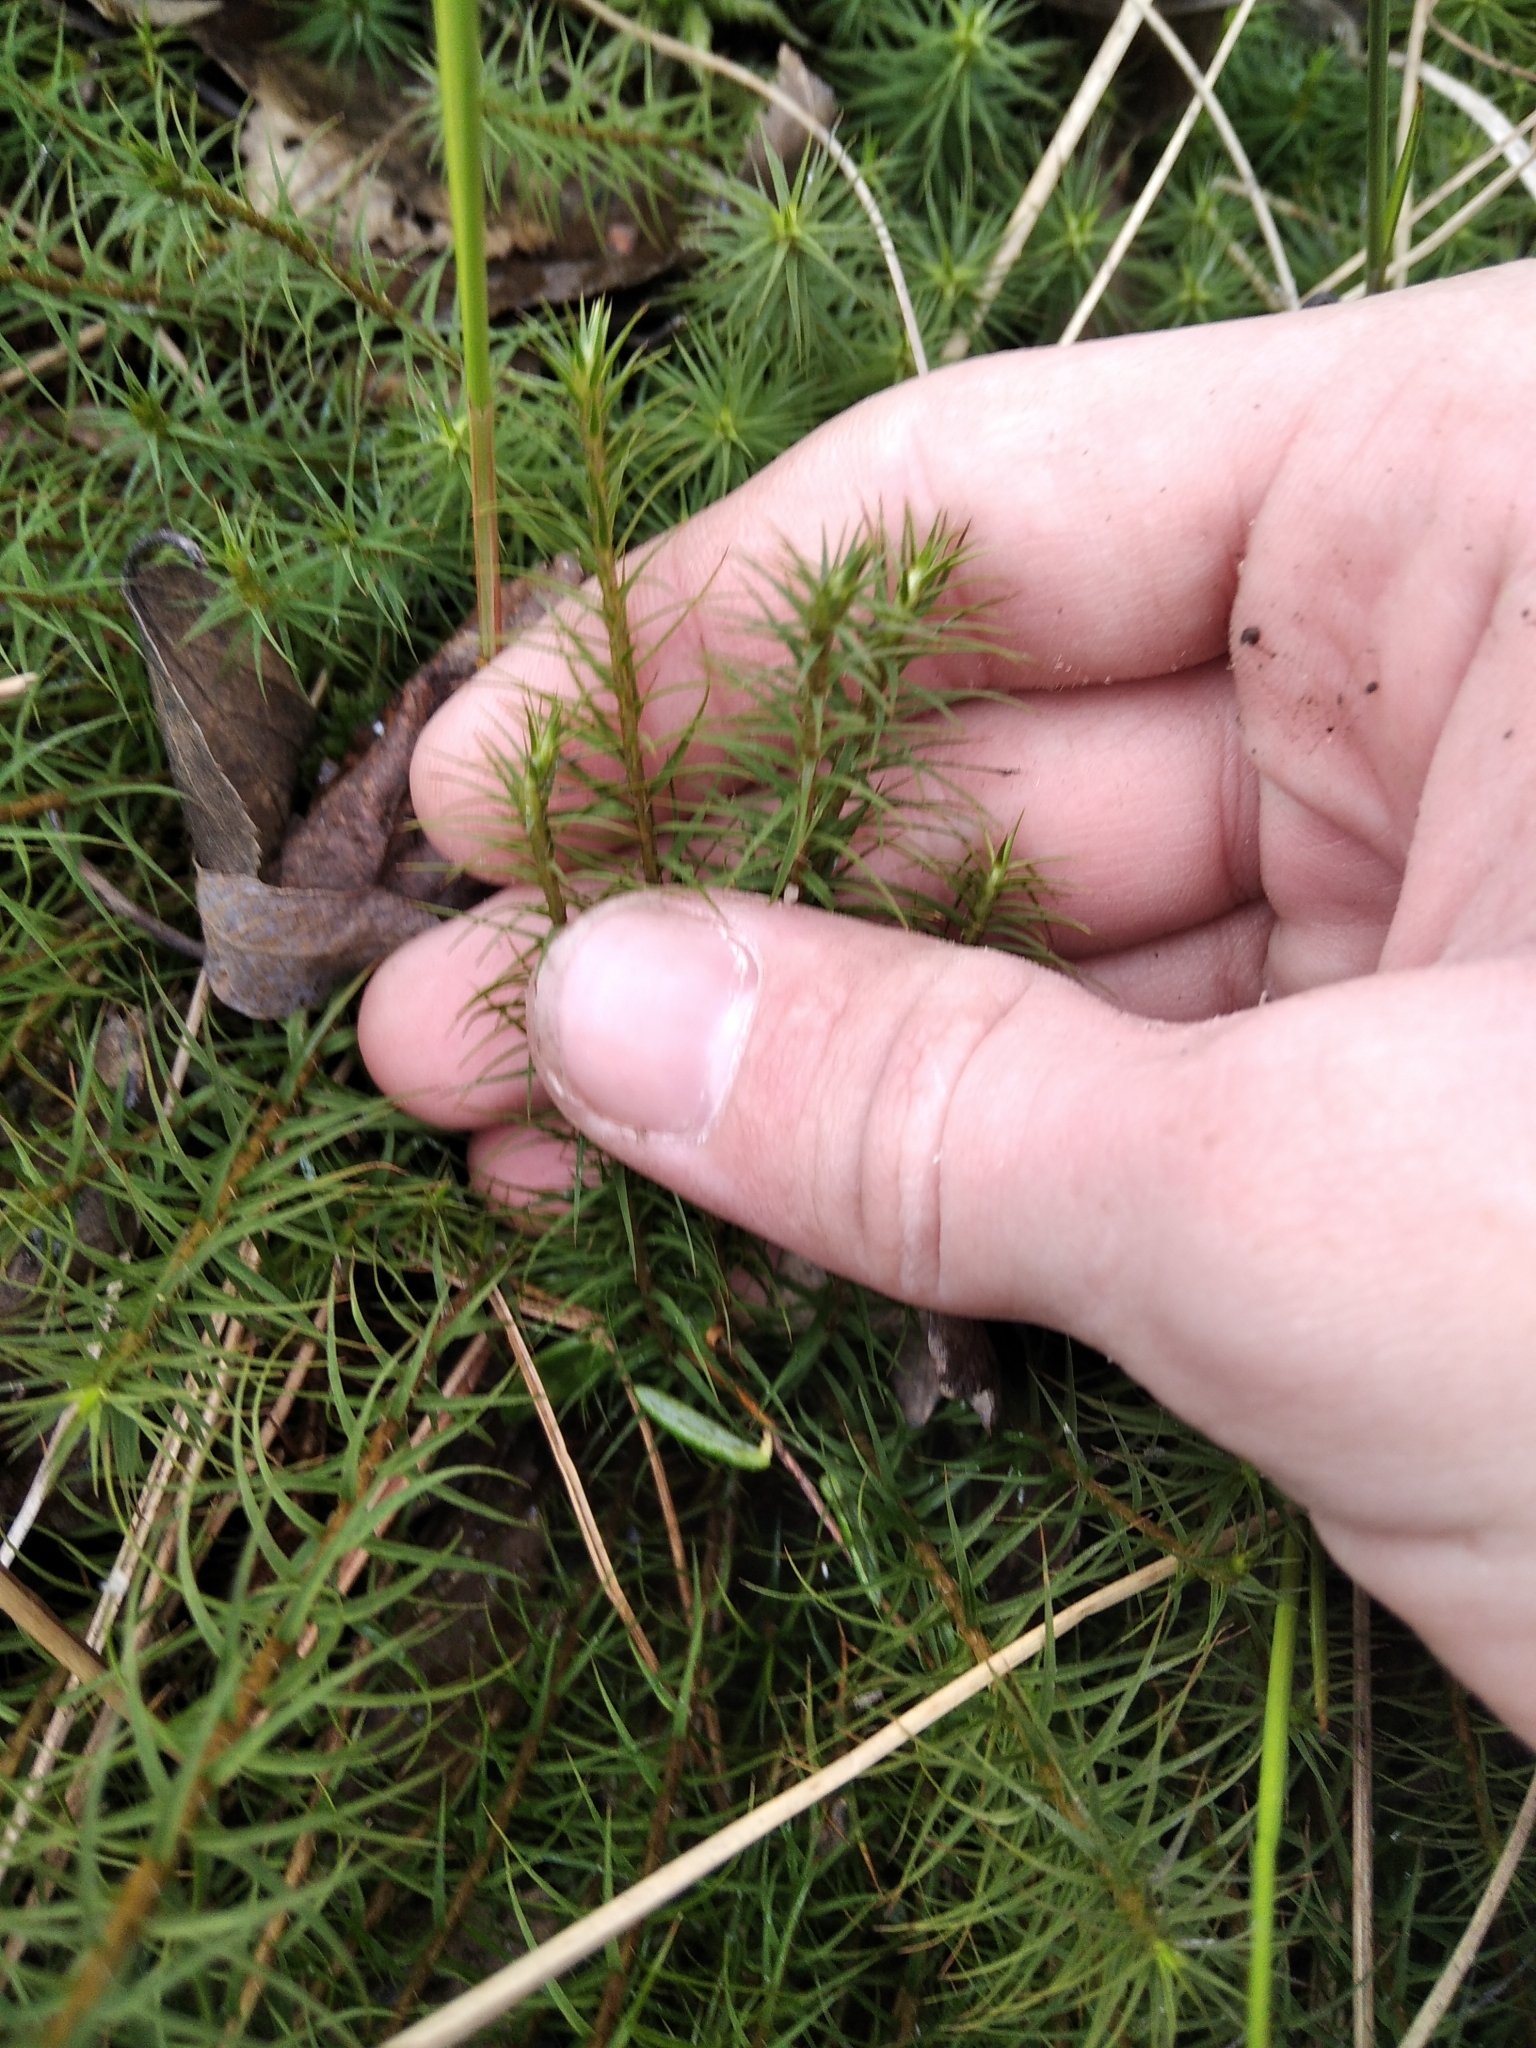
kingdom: Plantae
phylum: Bryophyta
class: Polytrichopsida
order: Polytrichales
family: Polytrichaceae
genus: Polytrichum
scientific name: Polytrichum commune
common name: Common haircap
